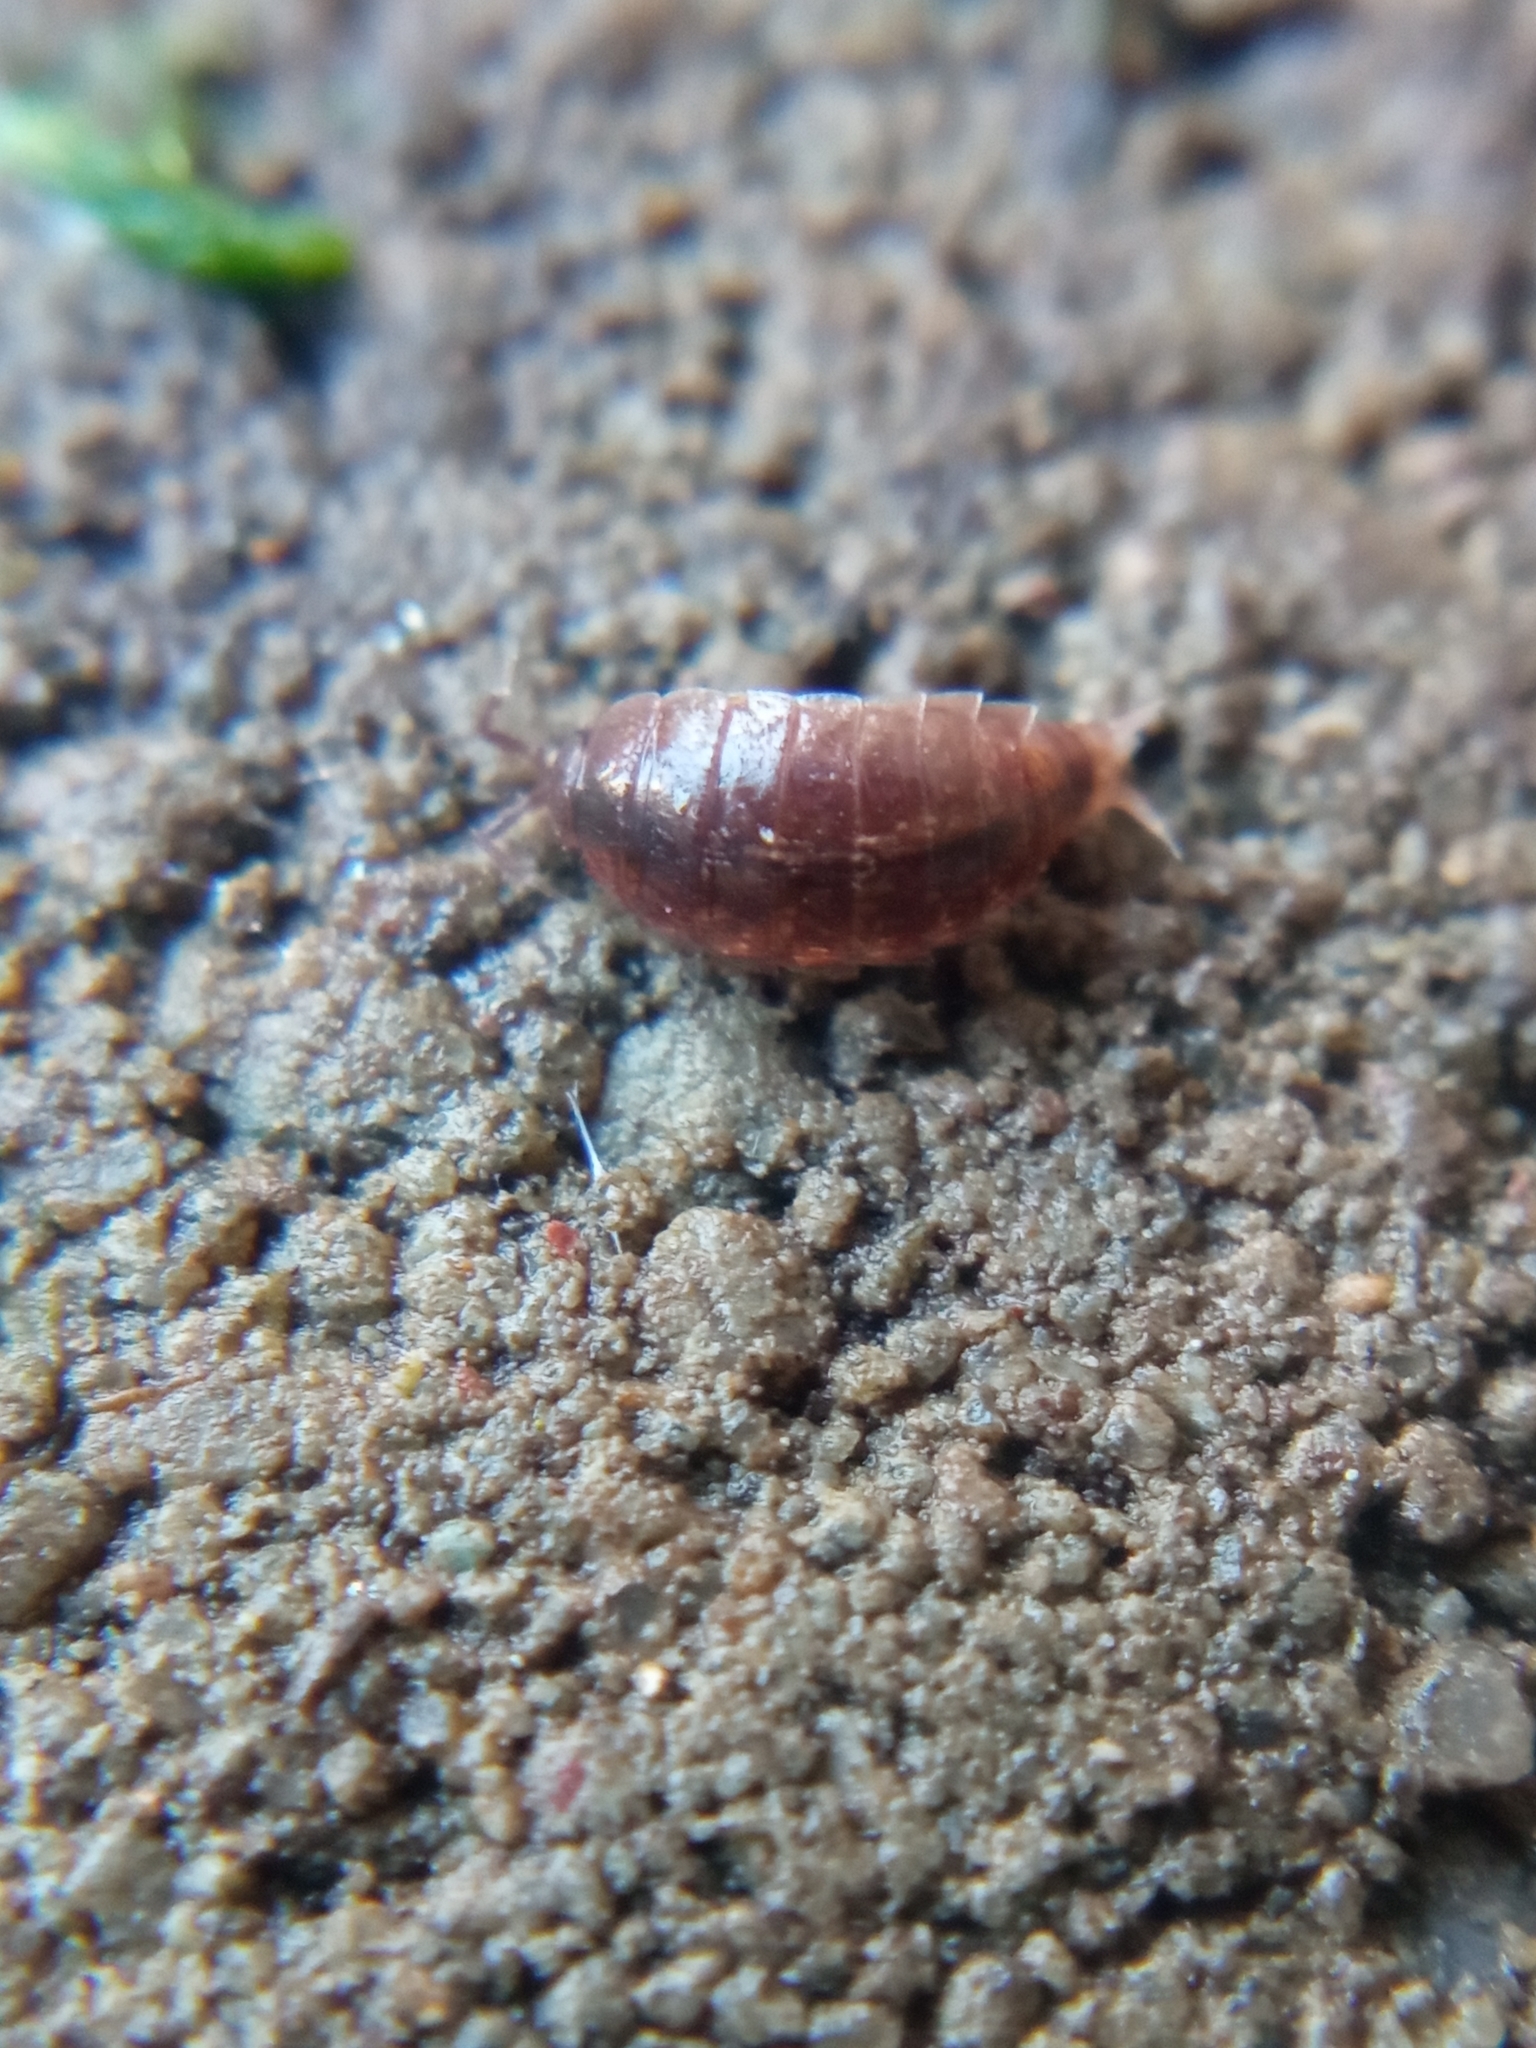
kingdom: Animalia
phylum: Arthropoda
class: Malacostraca
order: Isopoda
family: Trichoniscidae
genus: Hyloniscus
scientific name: Hyloniscus riparius
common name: Isopod
